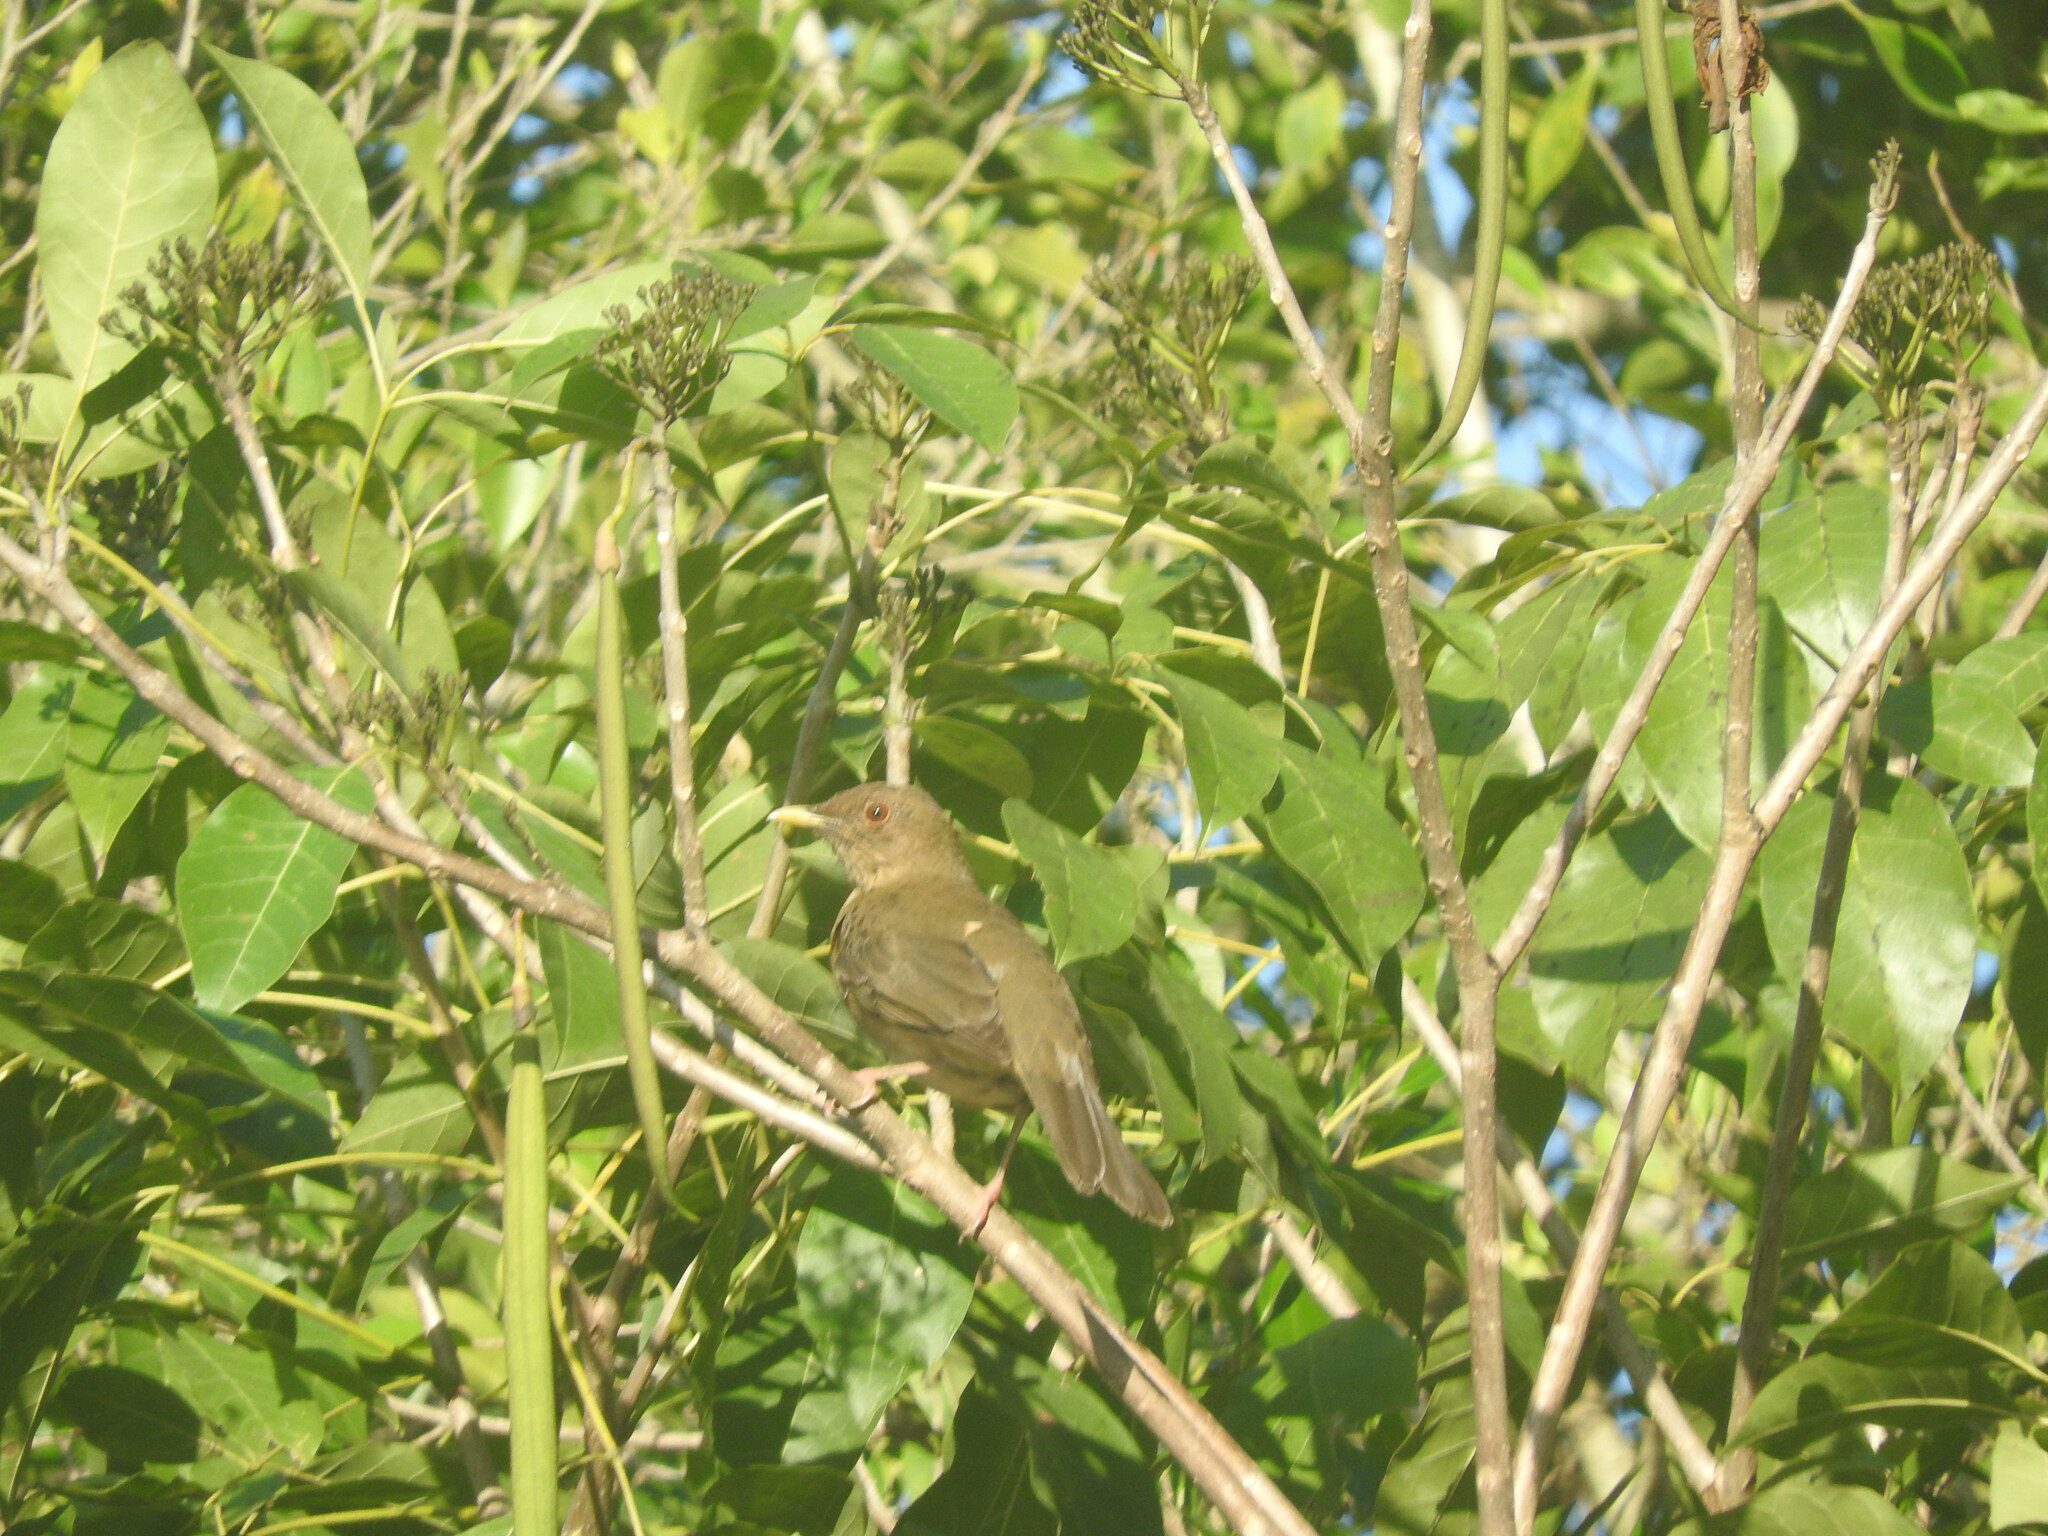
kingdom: Animalia
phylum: Chordata
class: Aves
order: Passeriformes
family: Turdidae
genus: Turdus
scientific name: Turdus grayi
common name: Clay-colored thrush
